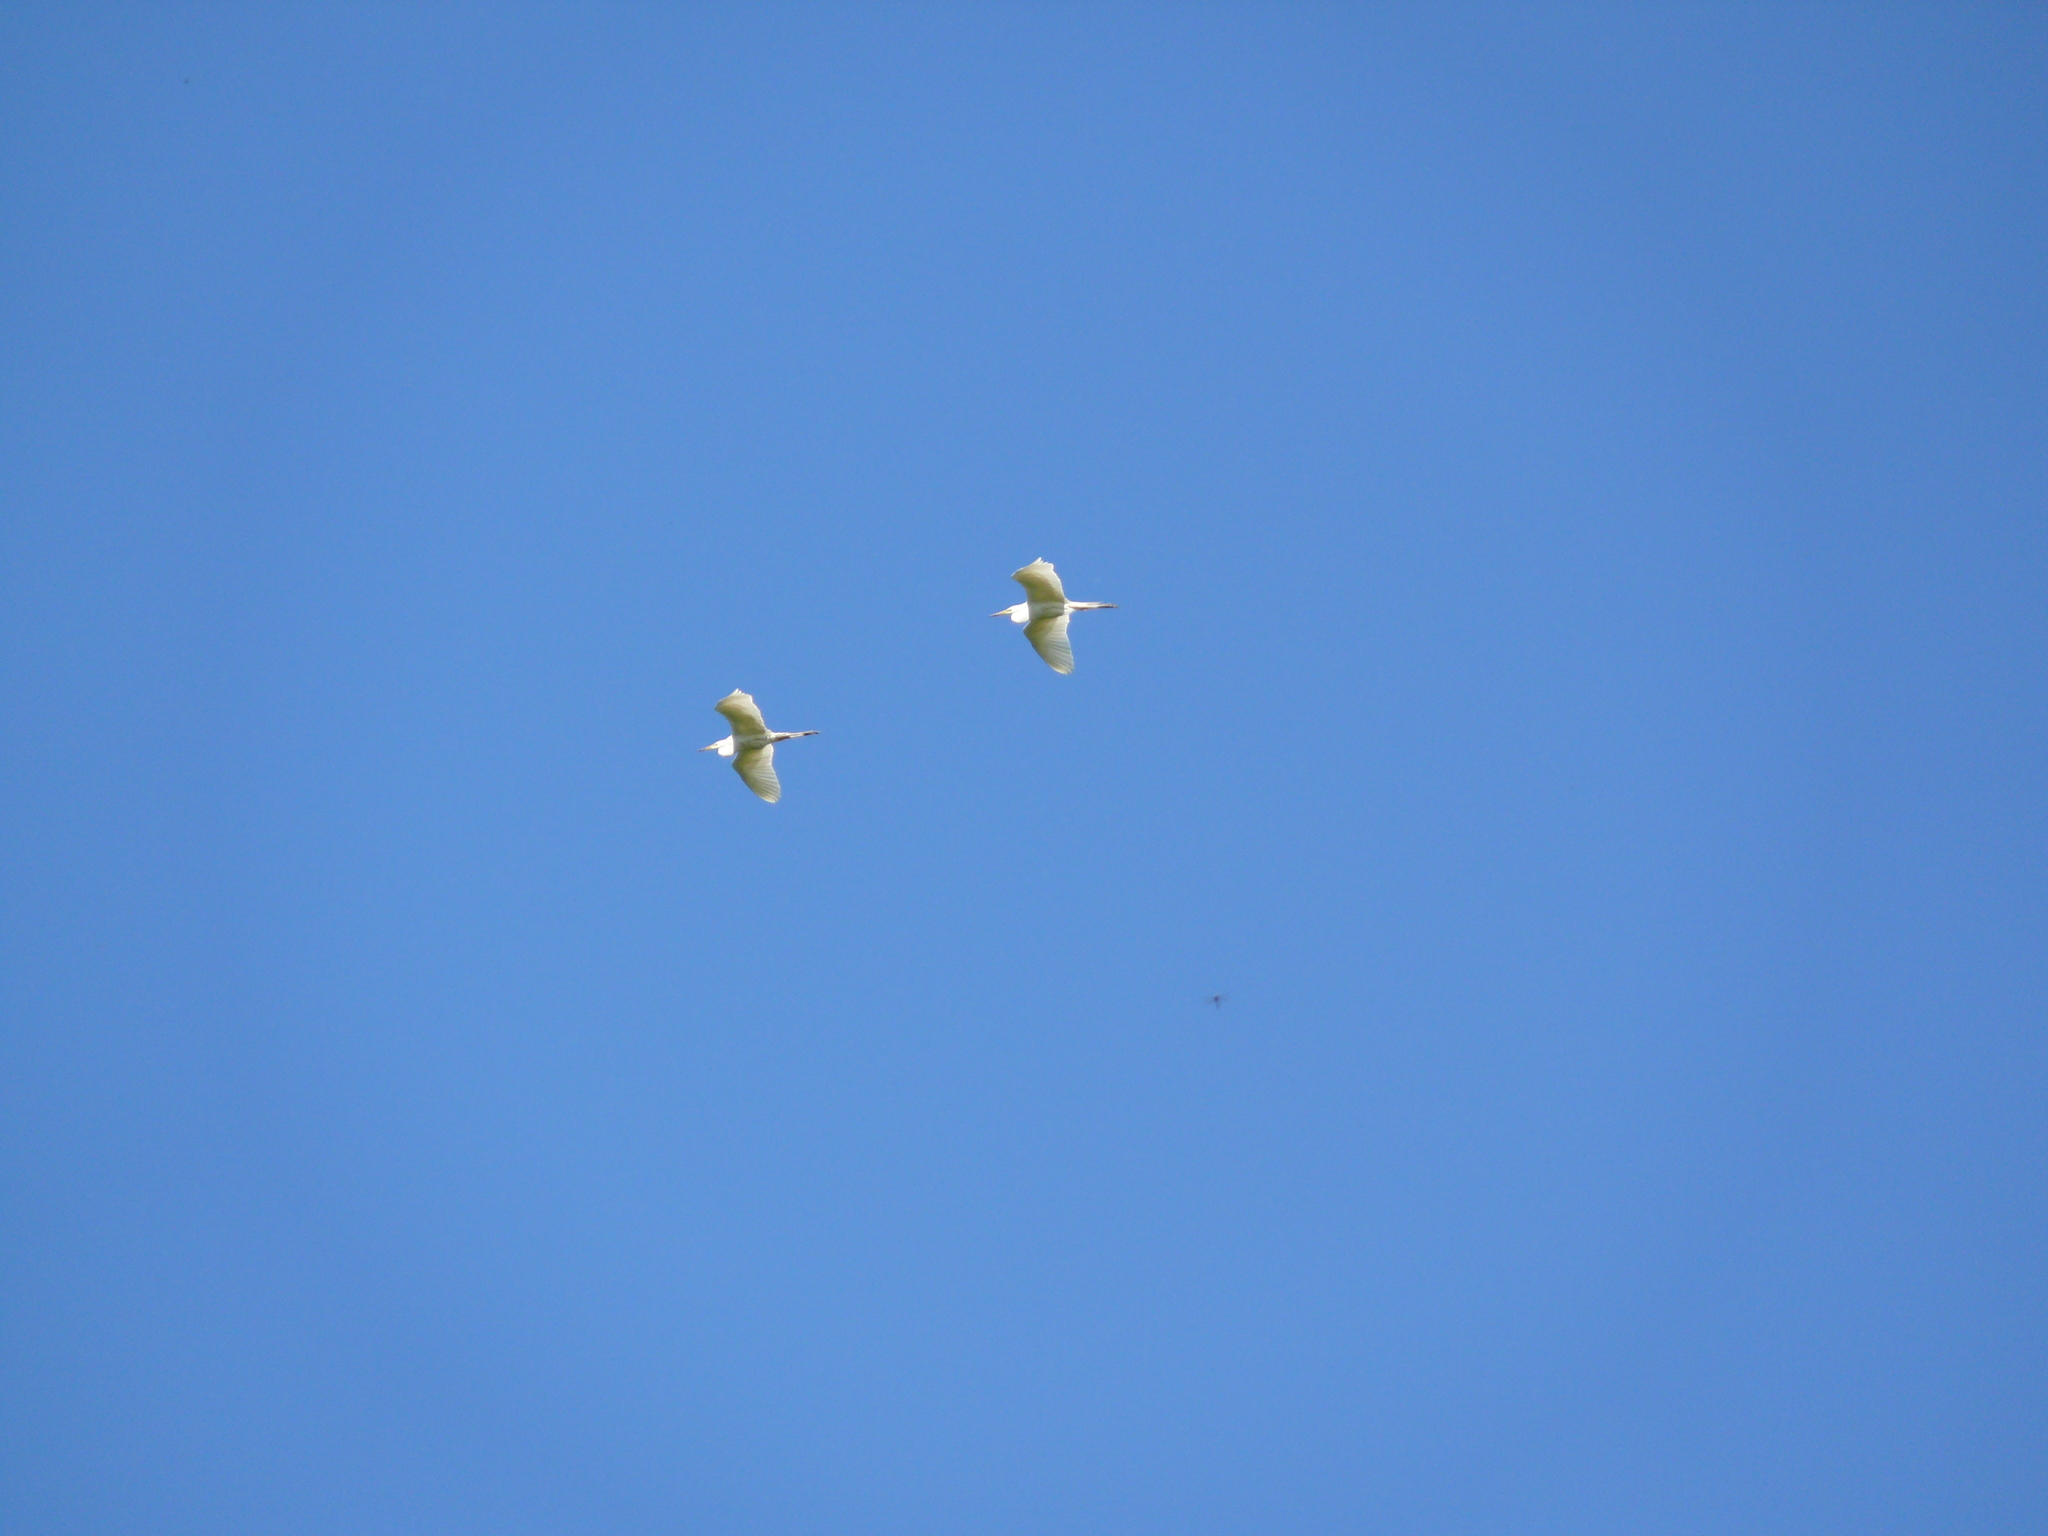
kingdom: Animalia
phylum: Chordata
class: Aves
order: Pelecaniformes
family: Ardeidae
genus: Ardea
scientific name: Ardea alba
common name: Great egret
